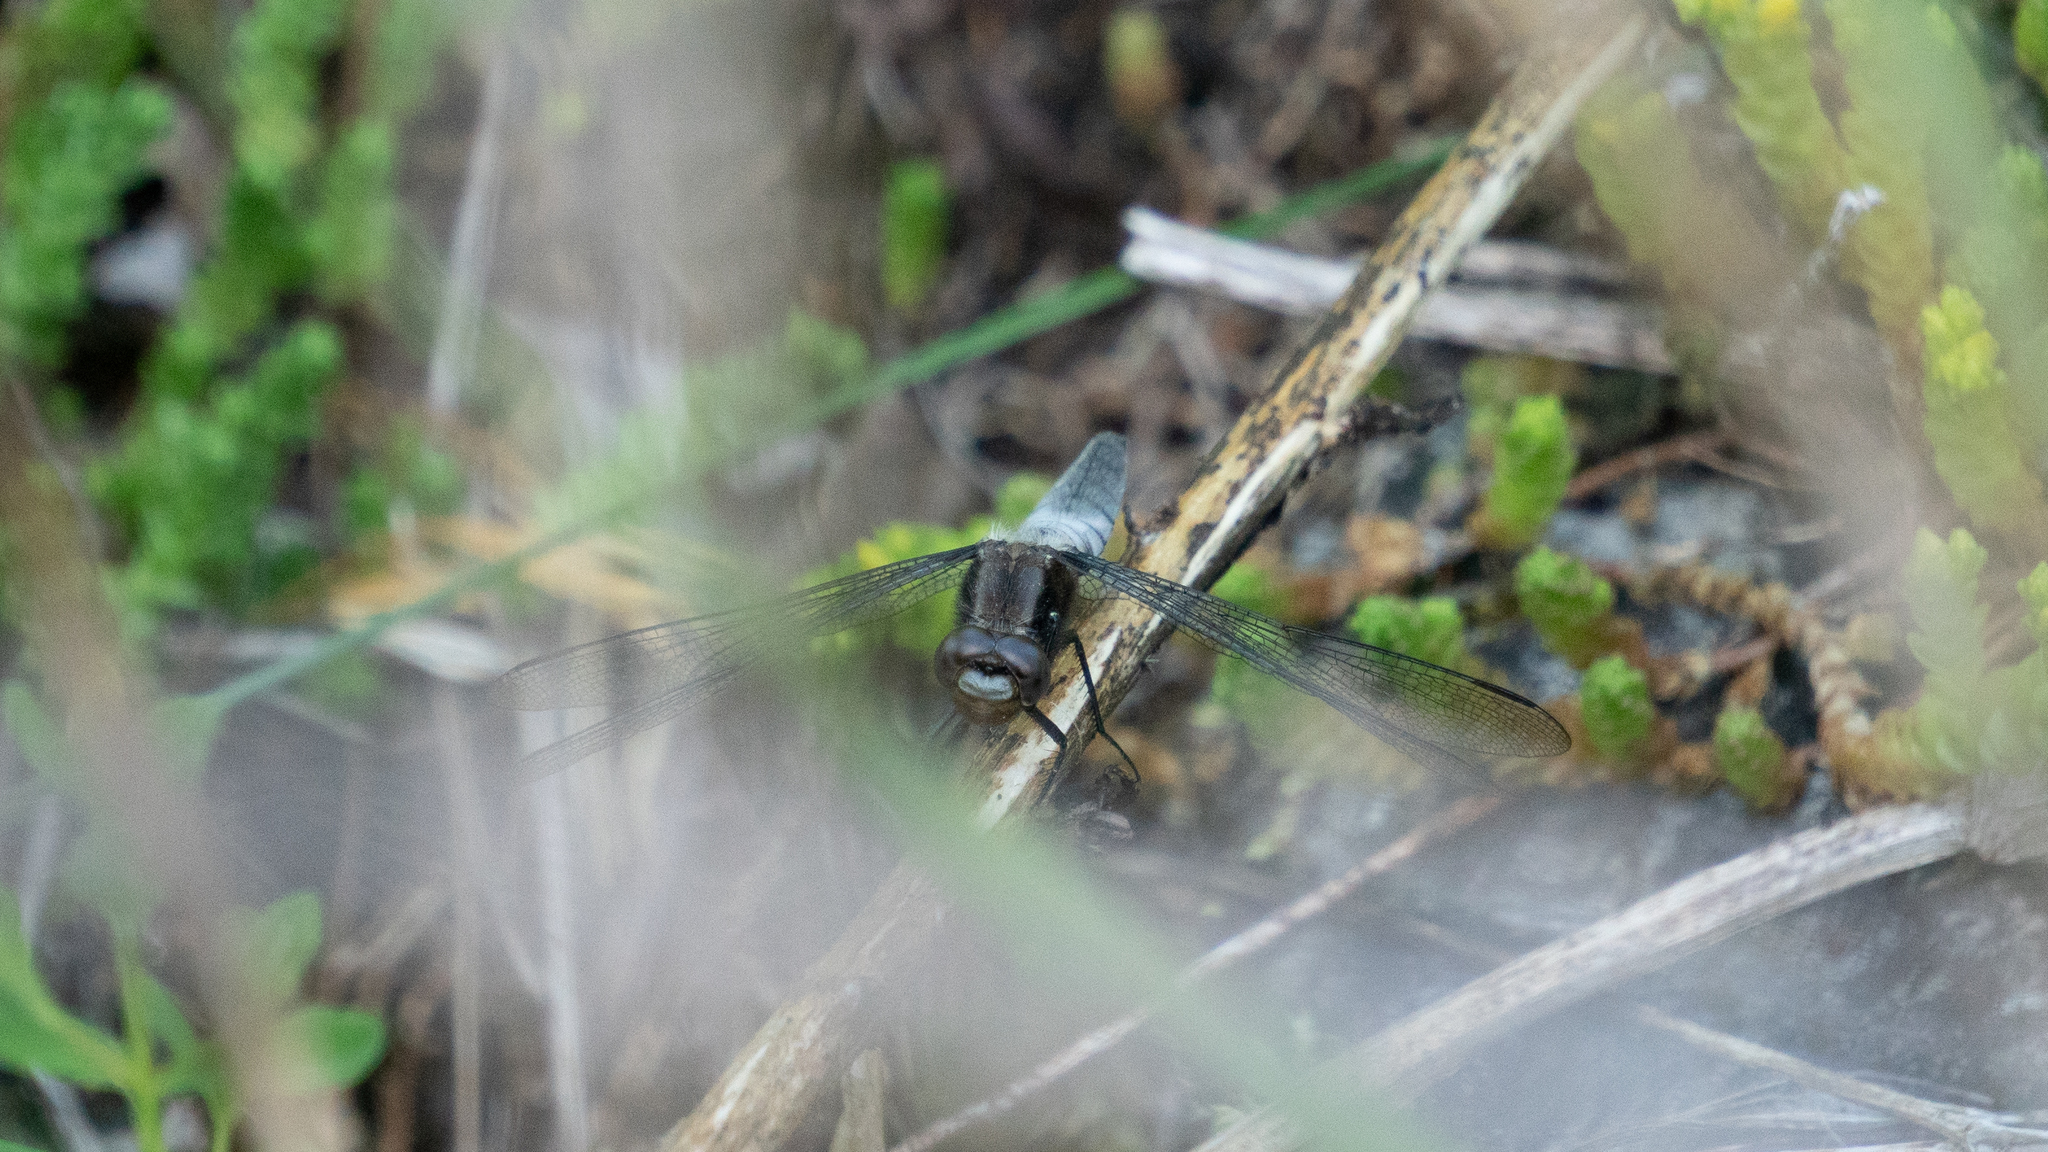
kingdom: Animalia
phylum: Arthropoda
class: Insecta
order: Odonata
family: Libellulidae
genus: Ladona
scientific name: Ladona julia
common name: Chalk-fronted corporal
